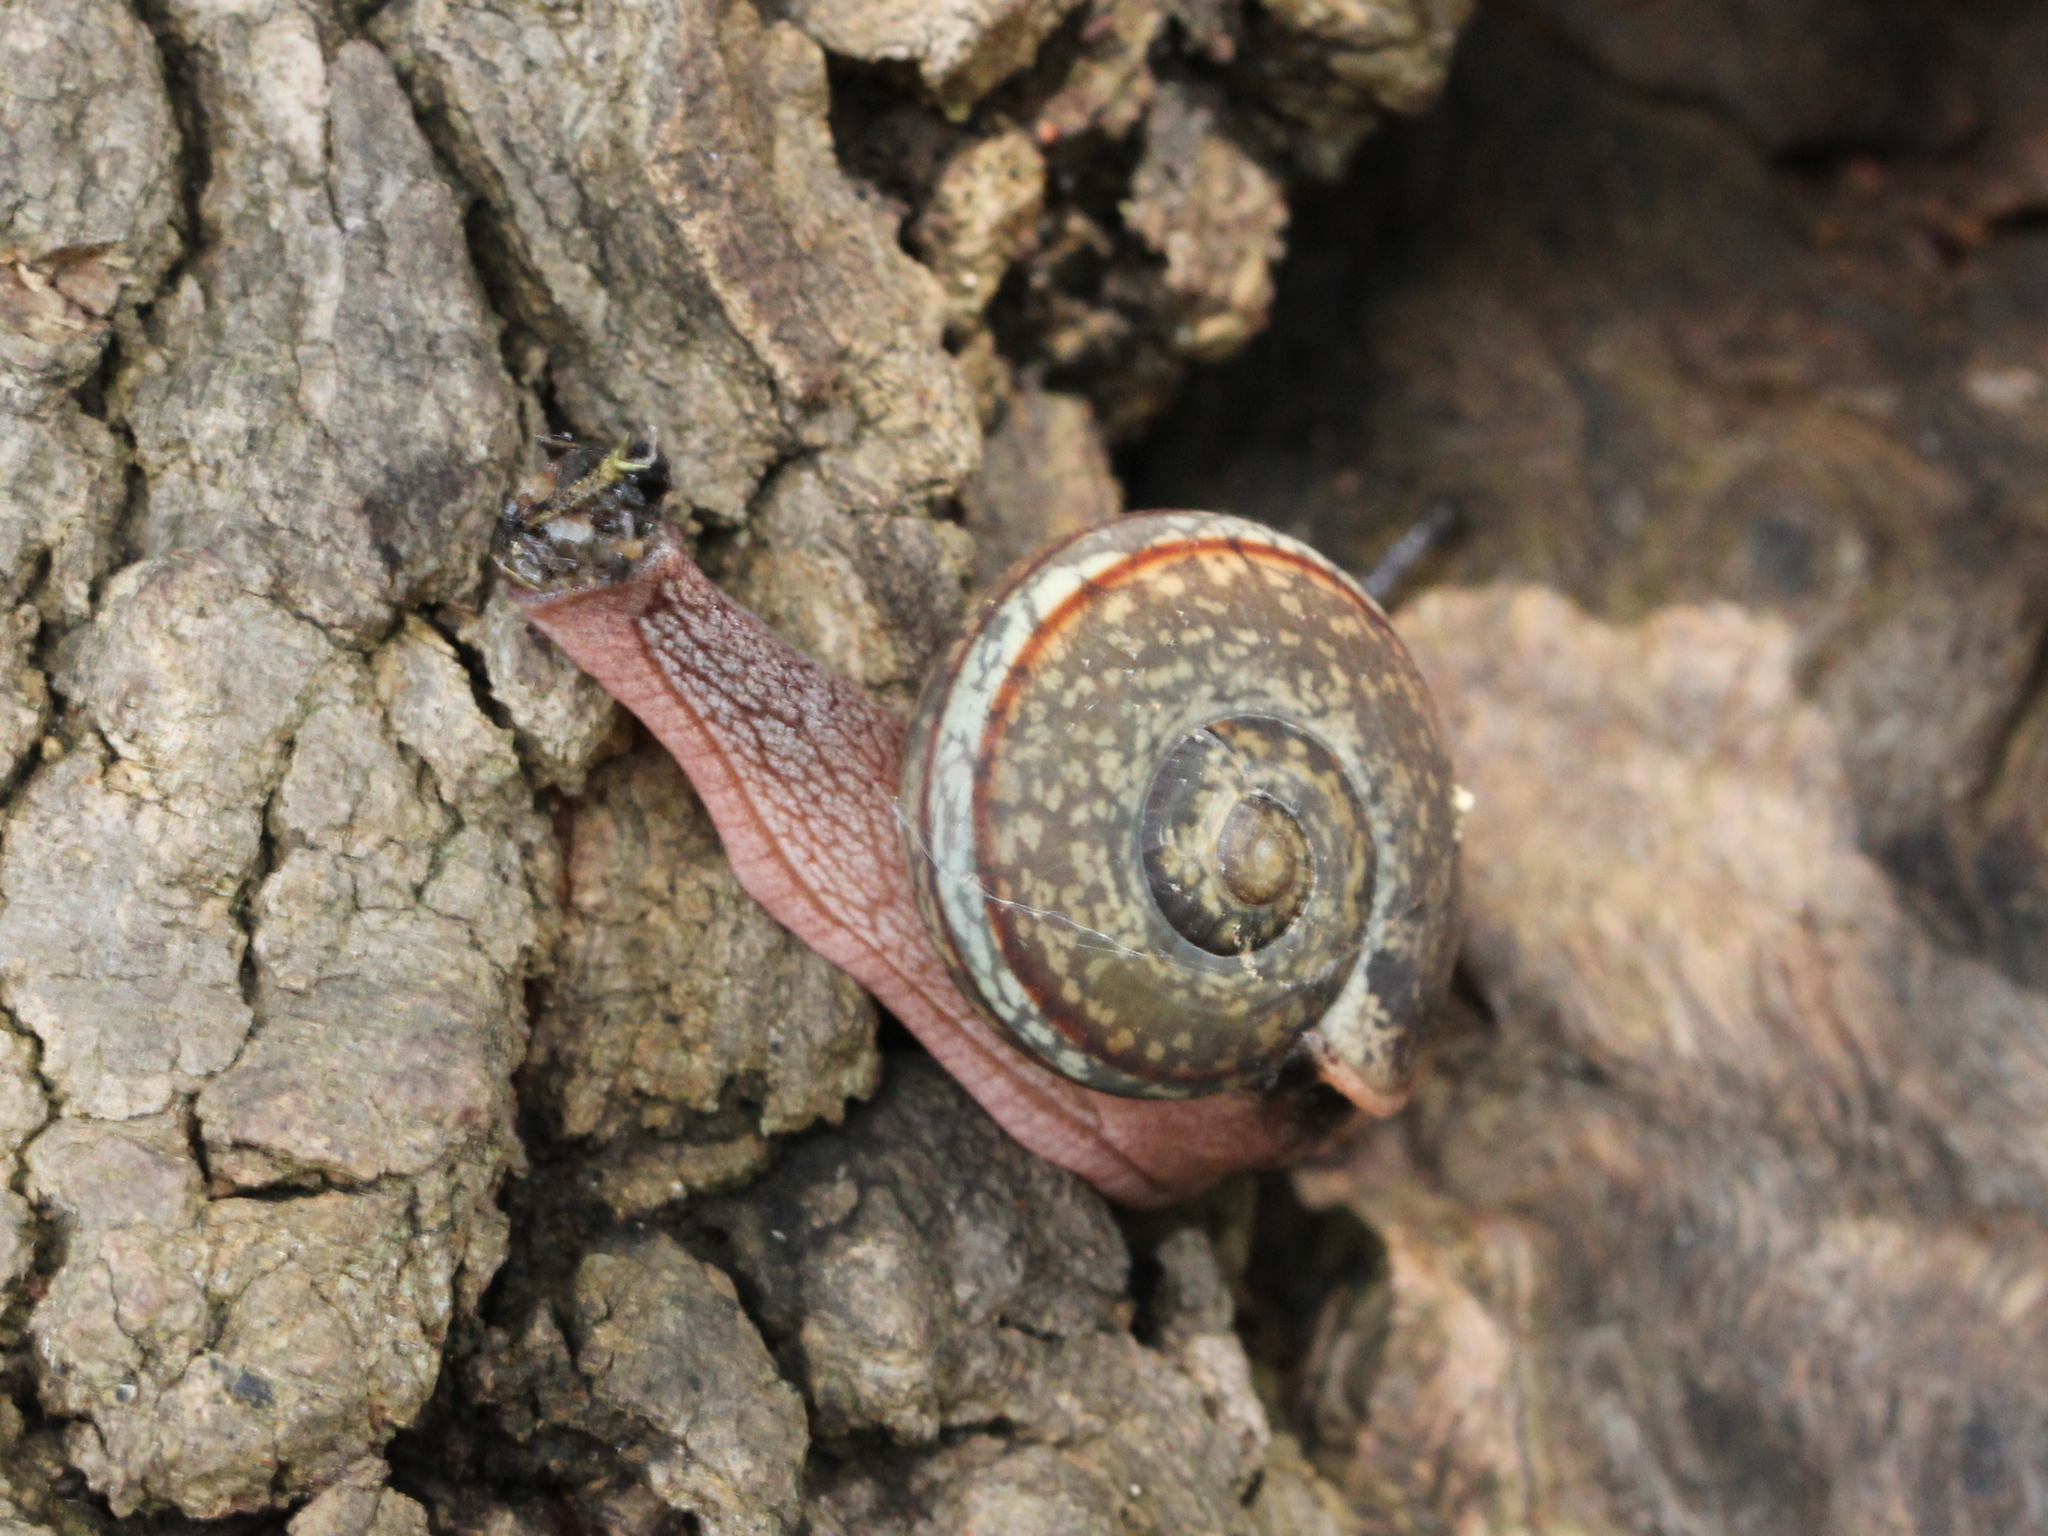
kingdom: Animalia
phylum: Mollusca
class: Gastropoda
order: Stylommatophora
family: Ariophantidae
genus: Ariophanta
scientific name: Ariophanta exilis
